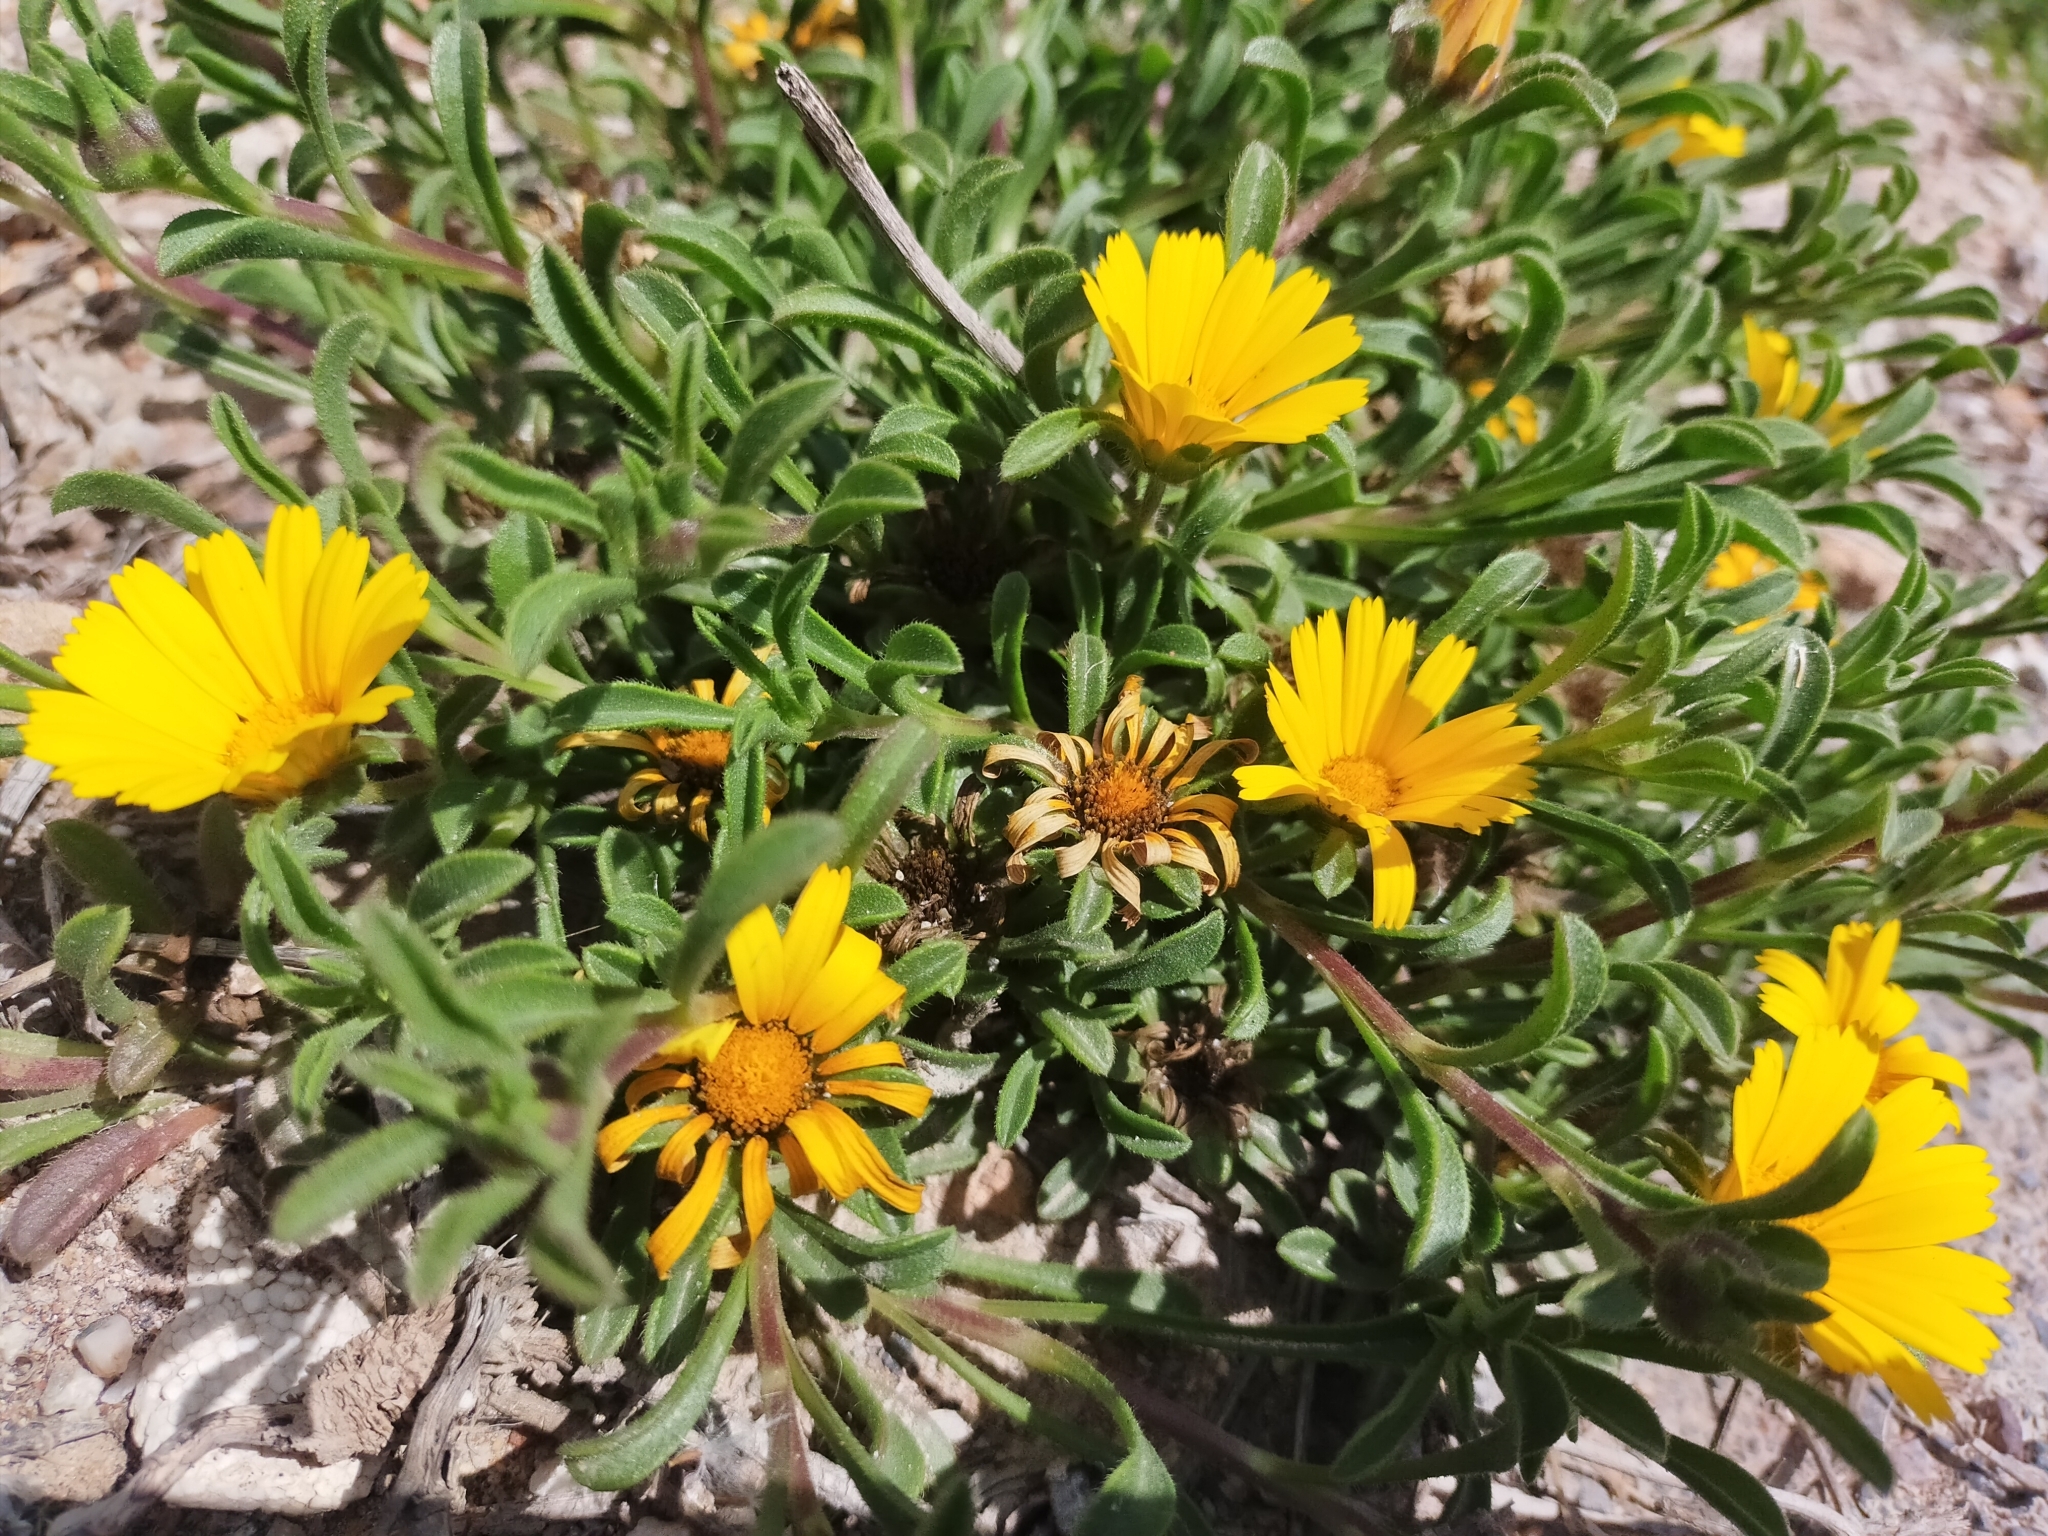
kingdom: Plantae
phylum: Tracheophyta
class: Magnoliopsida
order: Asterales
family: Asteraceae
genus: Pallenis
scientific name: Pallenis maritima
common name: Golden coin daisy
